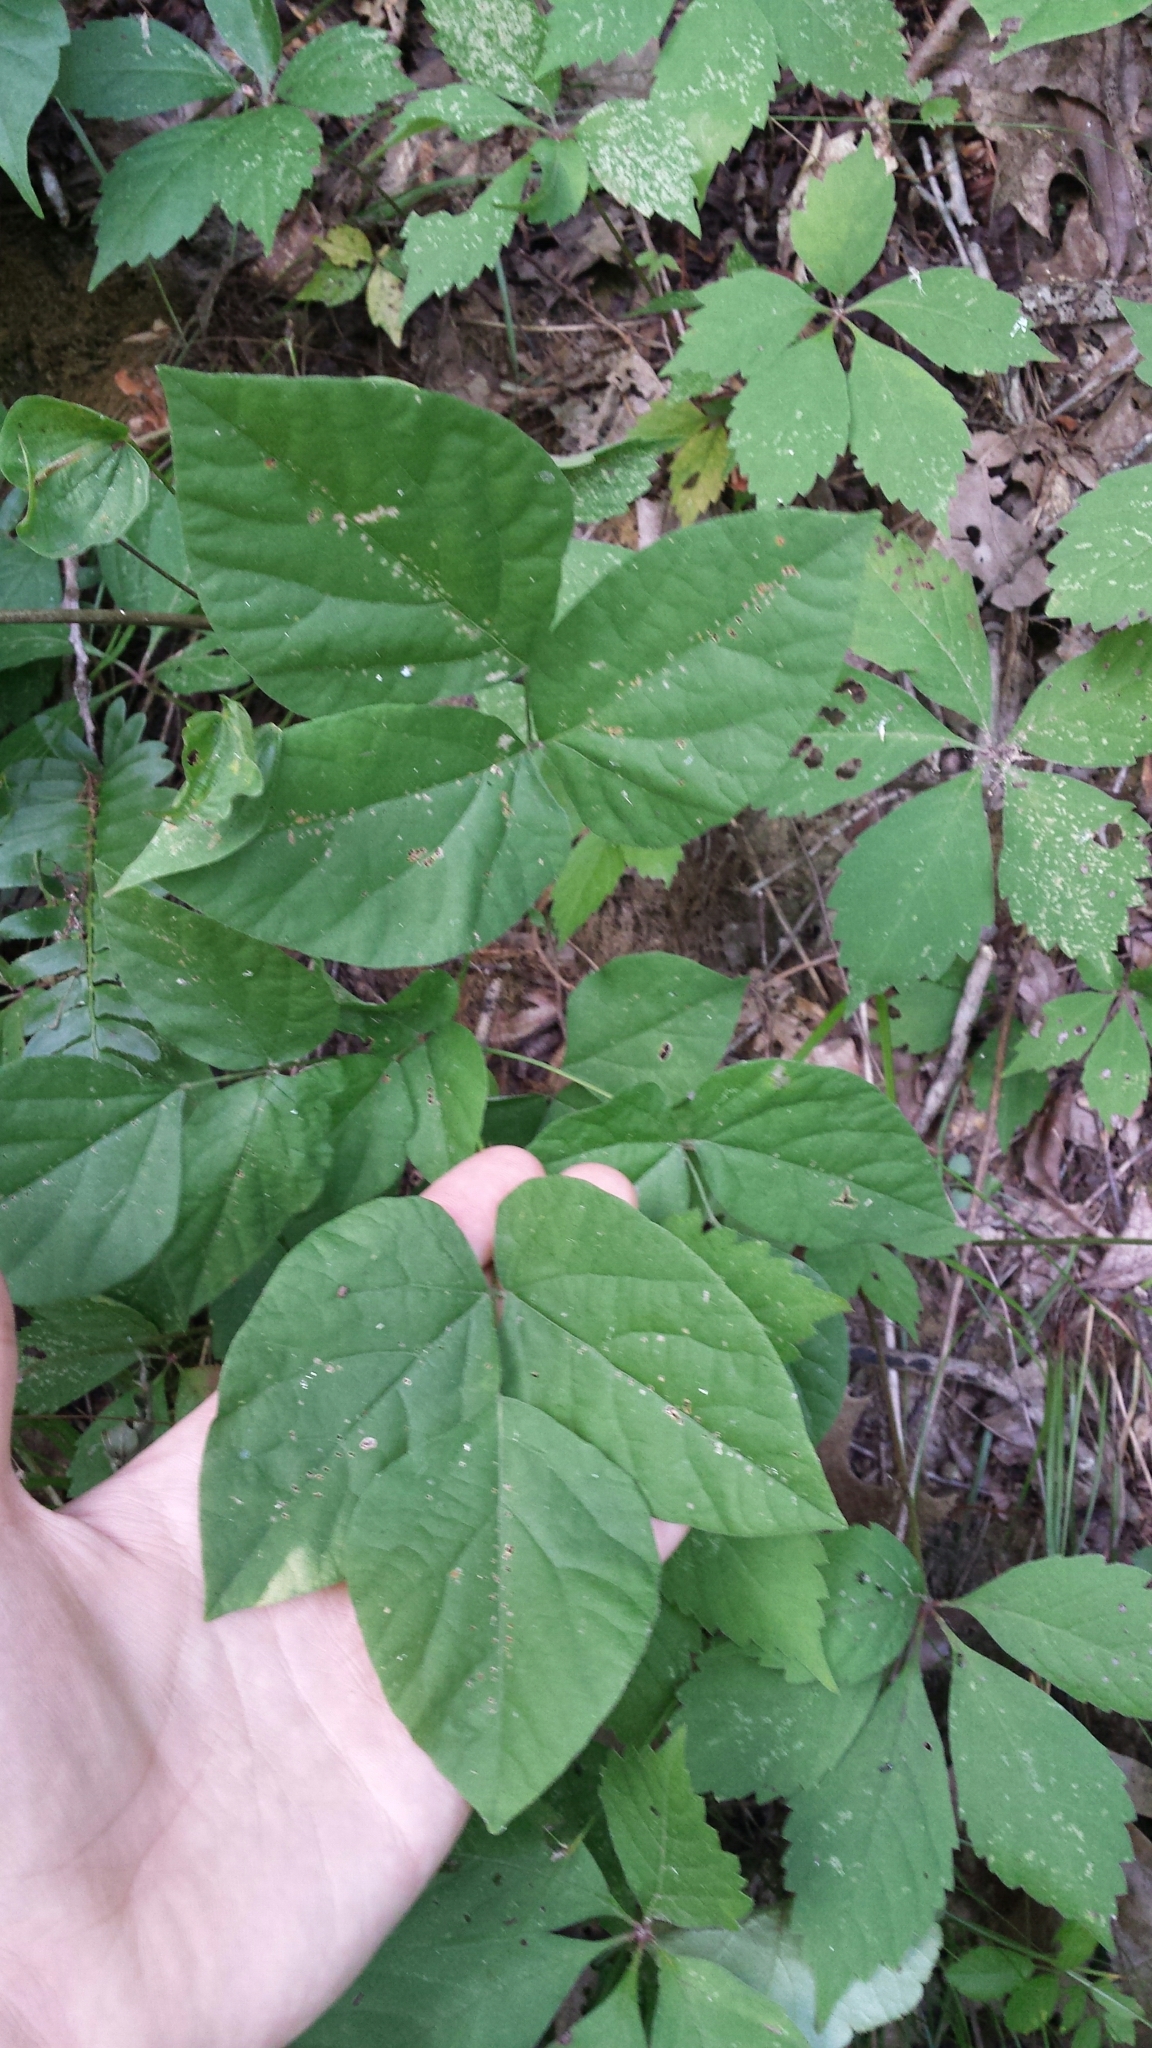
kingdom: Plantae
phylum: Tracheophyta
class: Magnoliopsida
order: Fabales
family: Fabaceae
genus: Hylodesmum
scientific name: Hylodesmum nudiflorum
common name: Bare-stemmed tick-trefoil
